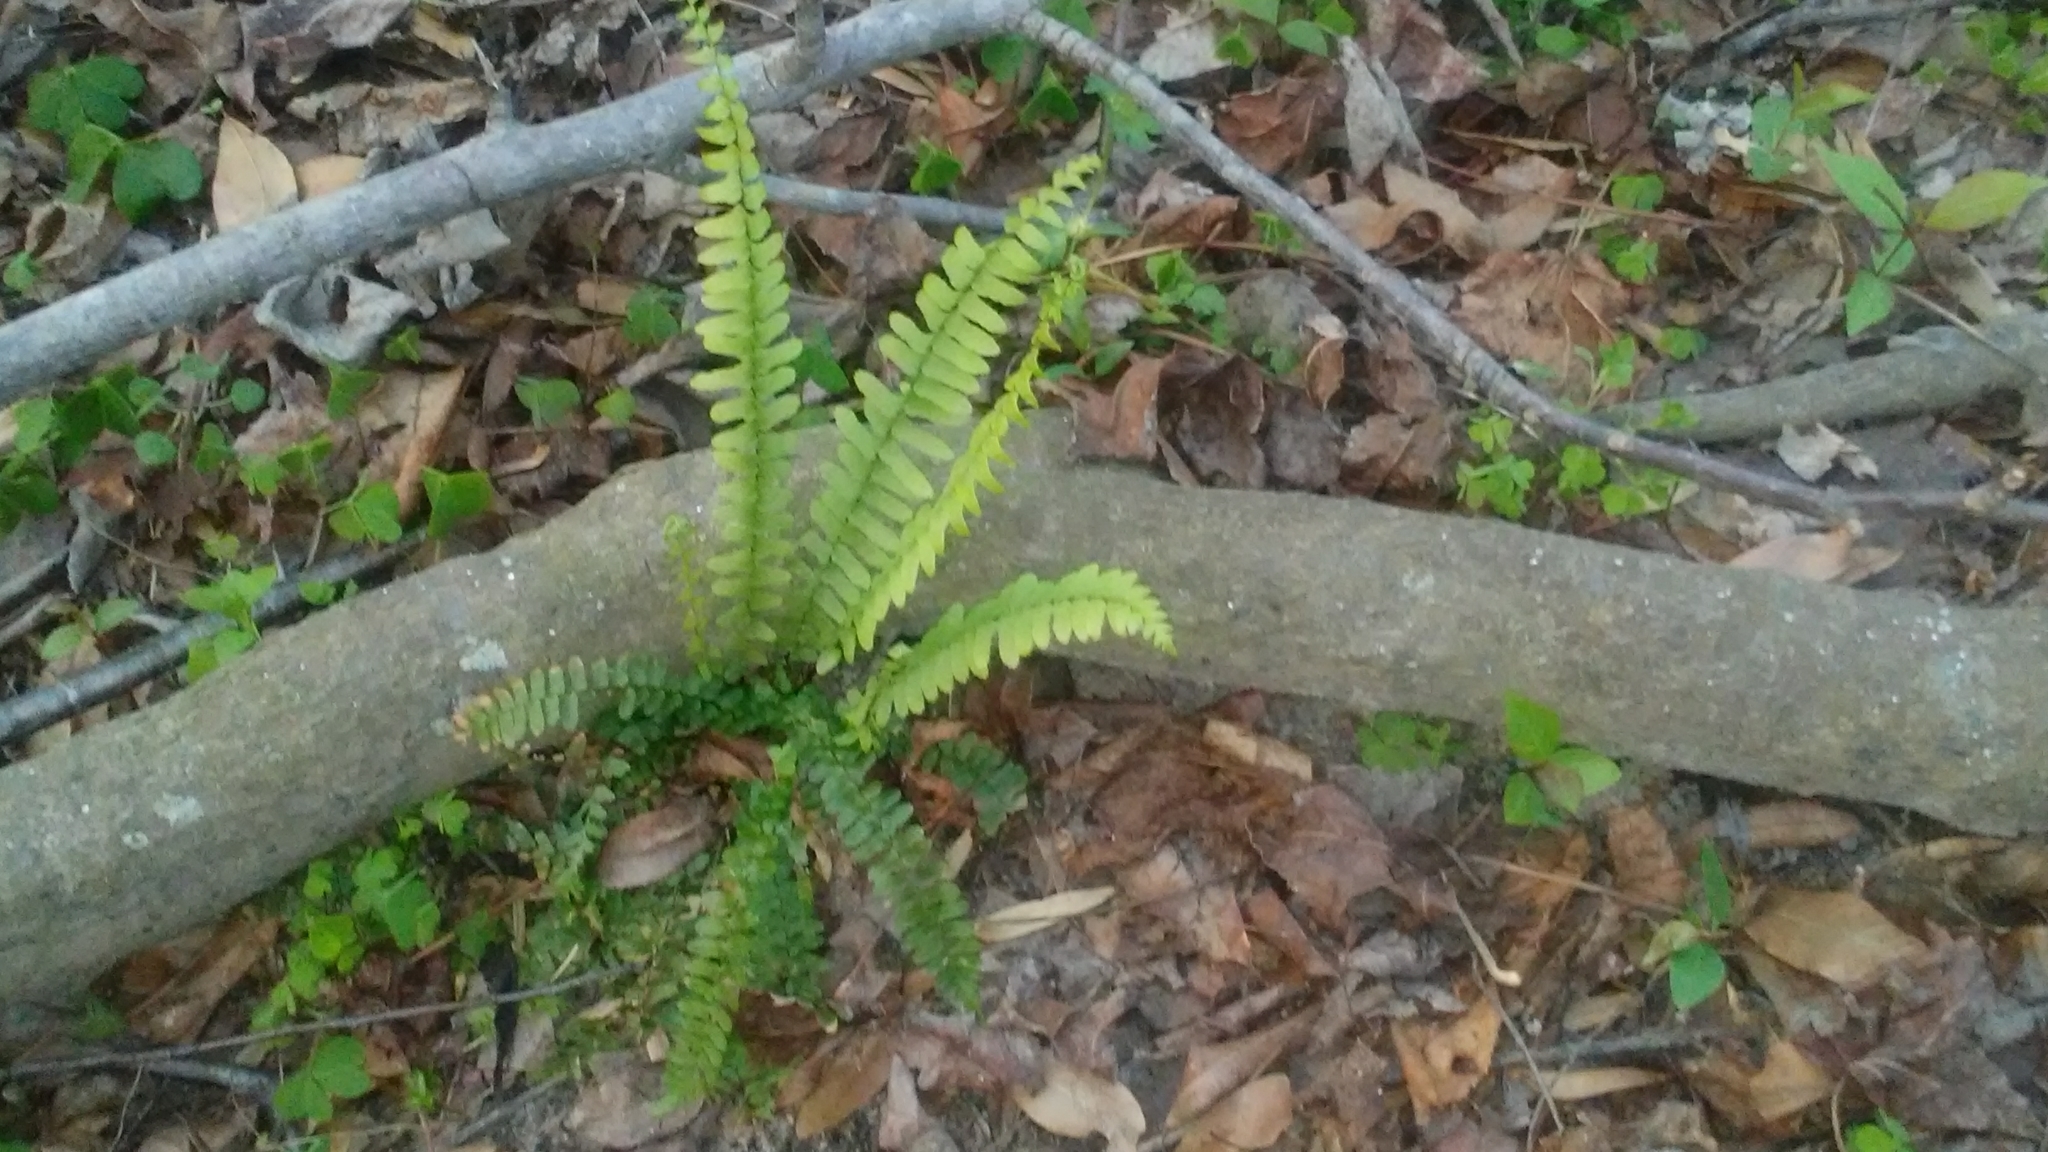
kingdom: Plantae
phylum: Tracheophyta
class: Polypodiopsida
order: Polypodiales
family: Aspleniaceae
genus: Asplenium
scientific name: Asplenium platyneuron
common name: Ebony spleenwort
